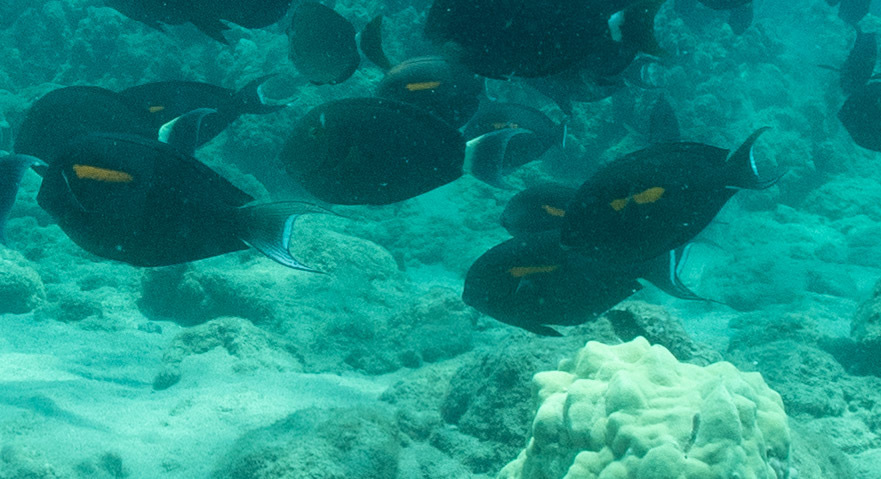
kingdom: Animalia
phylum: Chordata
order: Perciformes
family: Acanthuridae
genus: Acanthurus
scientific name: Acanthurus olivaceus
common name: Gendarme fish
